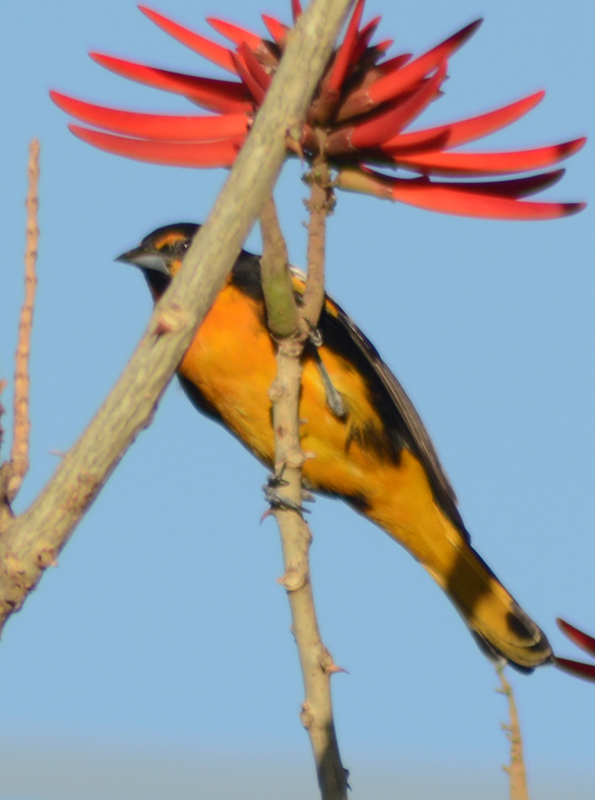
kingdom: Animalia
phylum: Chordata
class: Aves
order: Passeriformes
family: Icteridae
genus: Icterus
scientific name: Icterus abeillei
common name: Black-backed oriole
